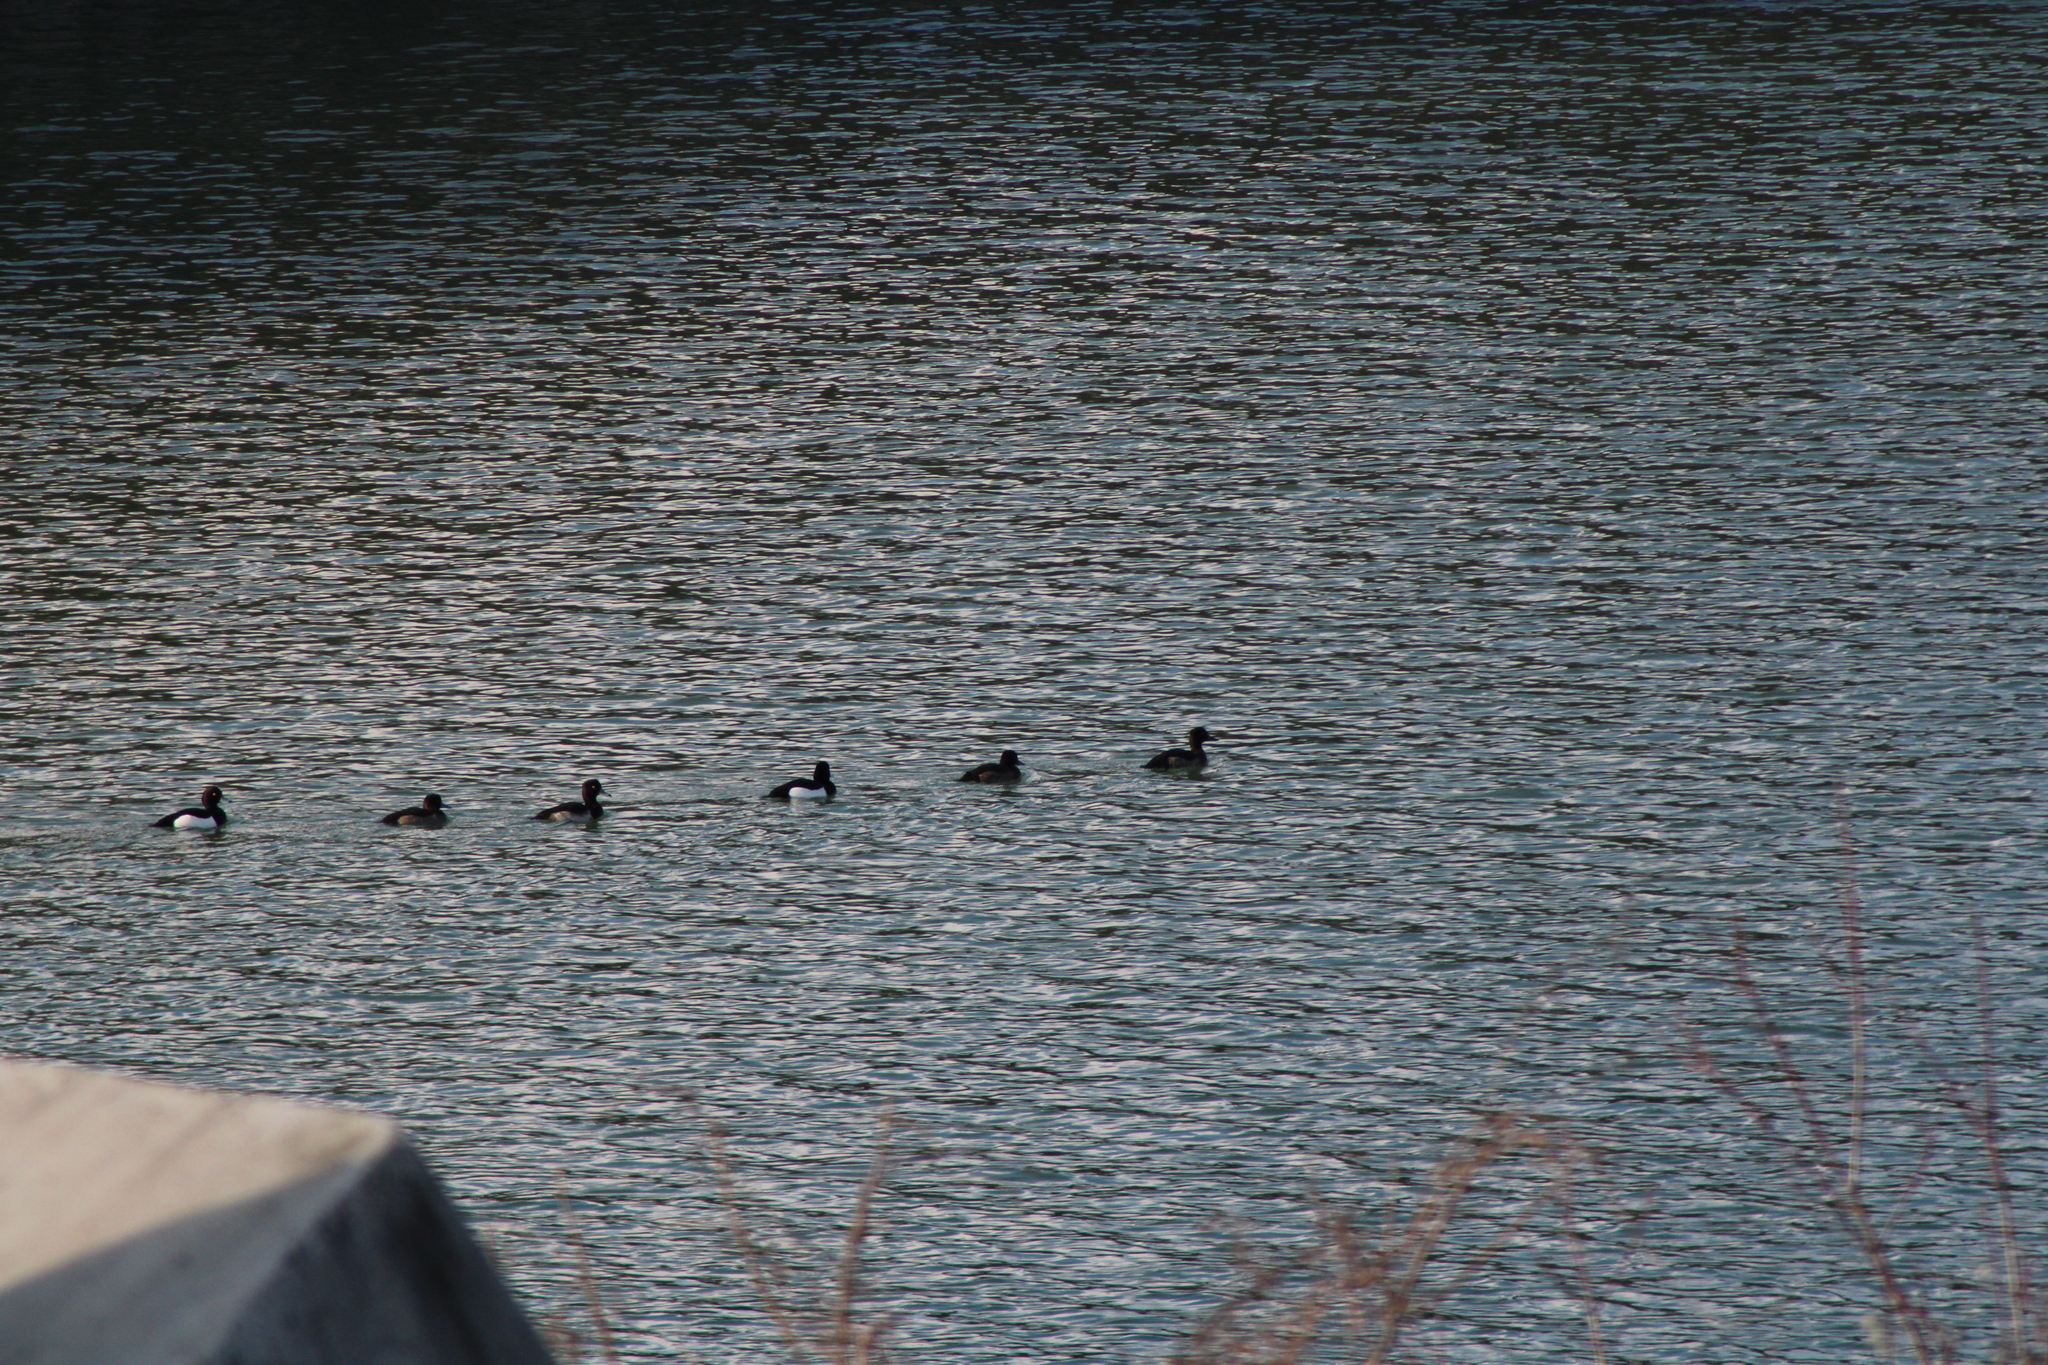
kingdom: Animalia
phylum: Chordata
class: Aves
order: Anseriformes
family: Anatidae
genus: Aythya
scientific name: Aythya fuligula
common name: Tufted duck
